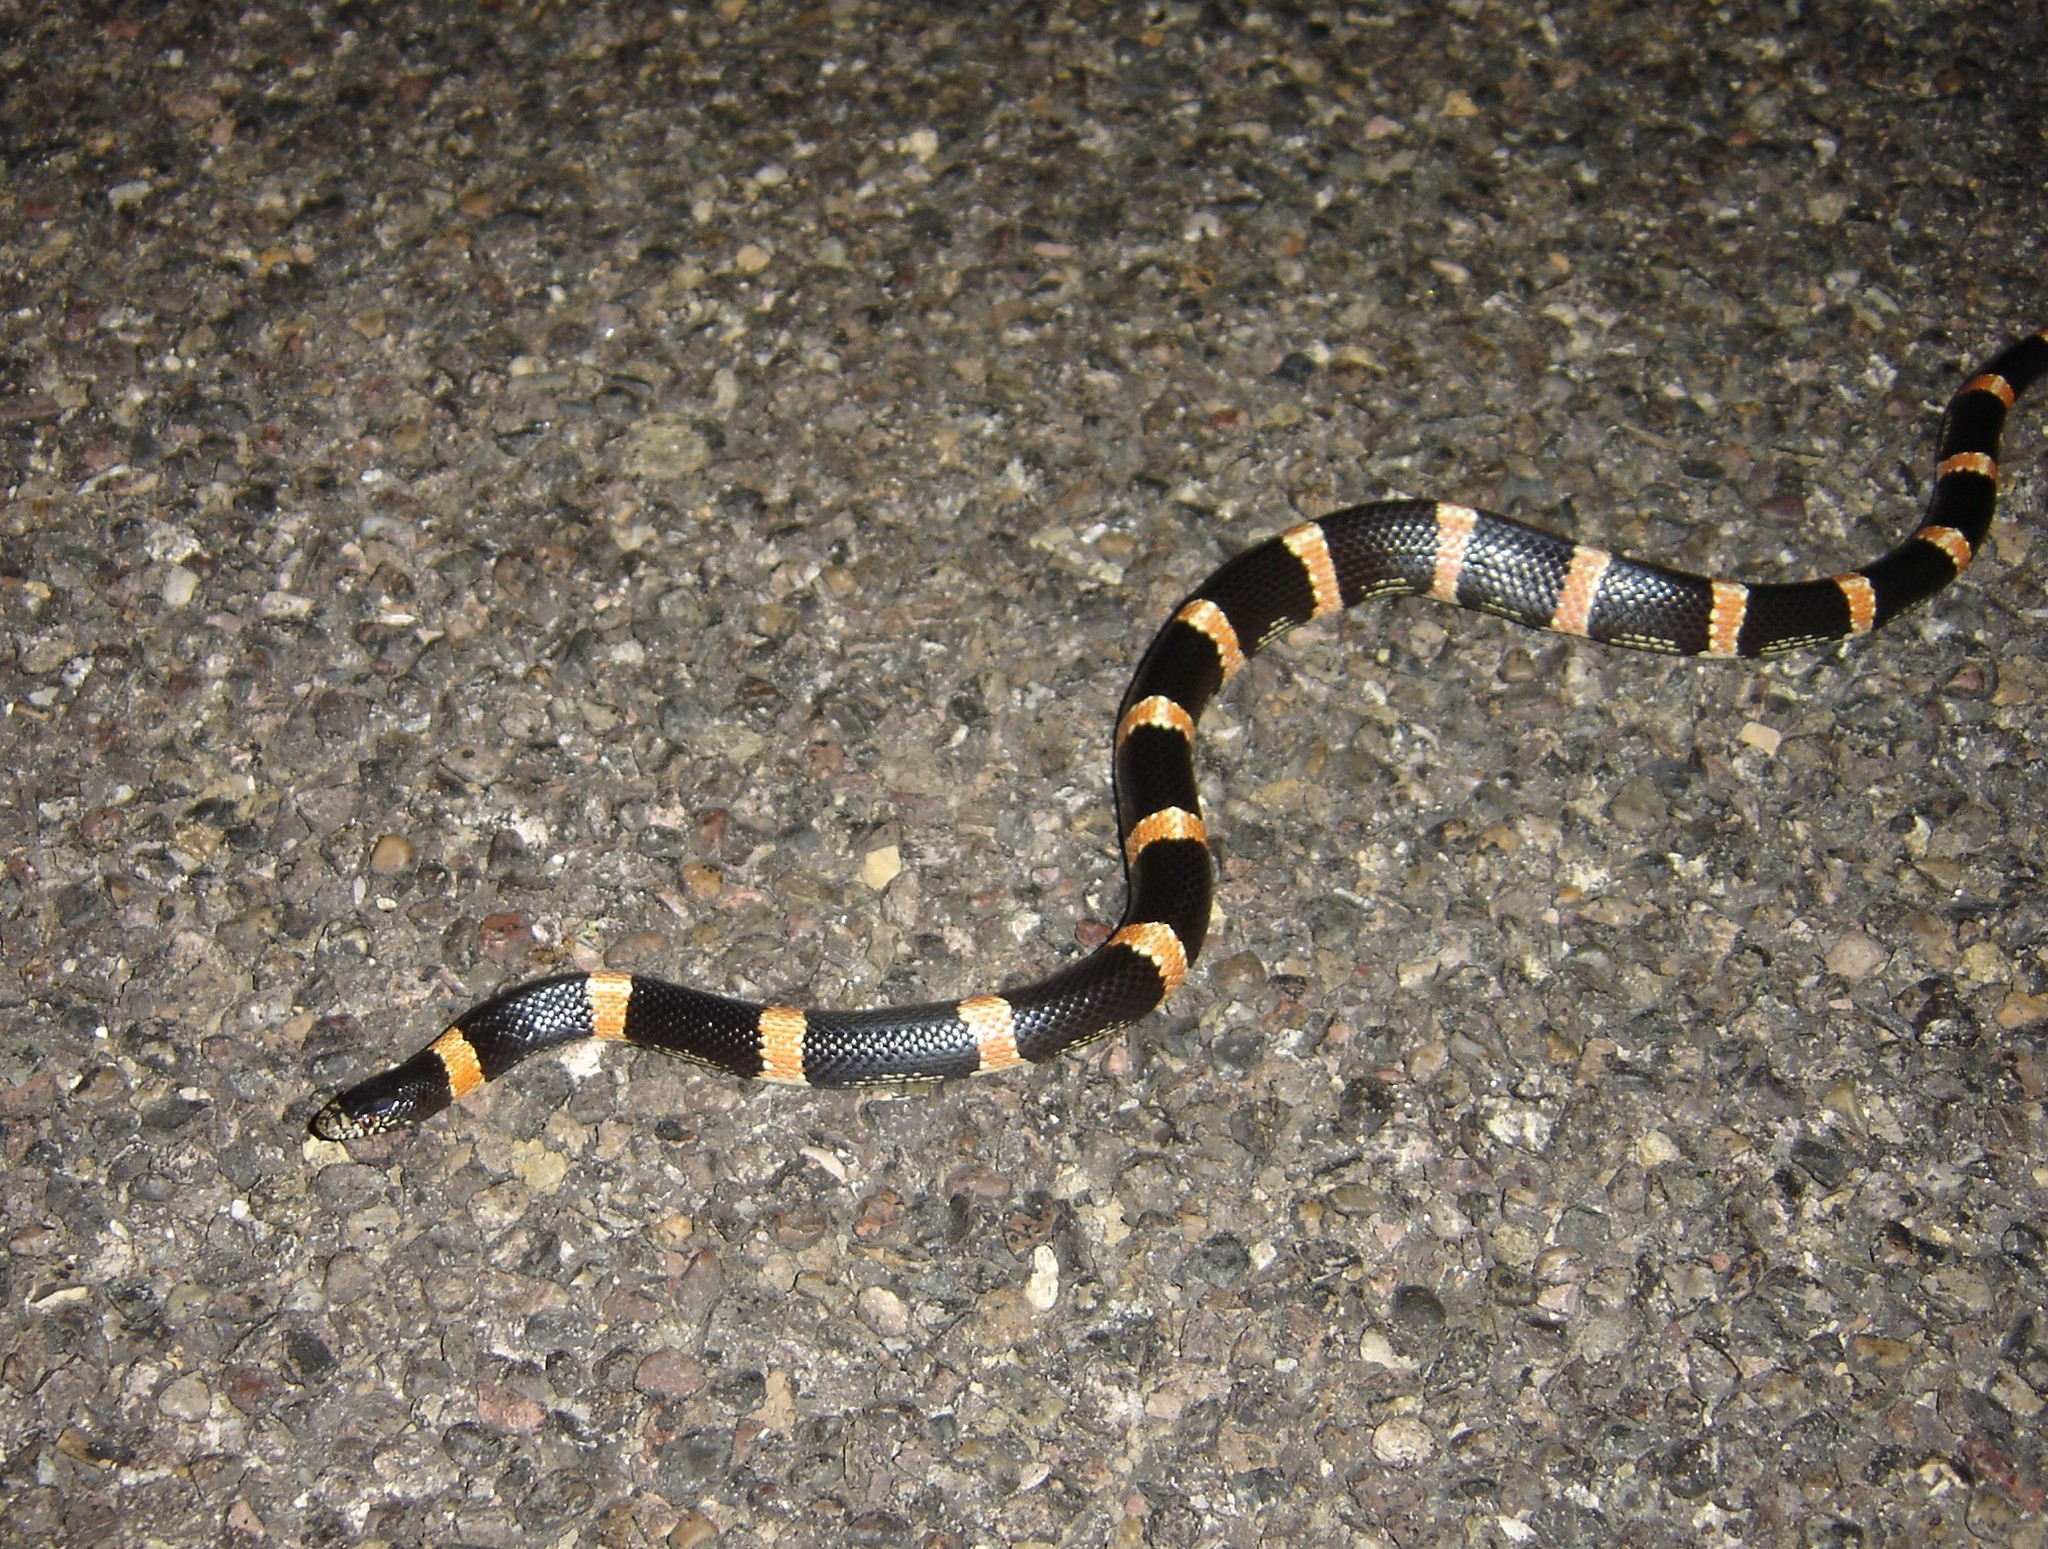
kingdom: Animalia
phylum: Chordata
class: Squamata
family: Colubridae
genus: Rhinocheilus
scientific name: Rhinocheilus antonii
